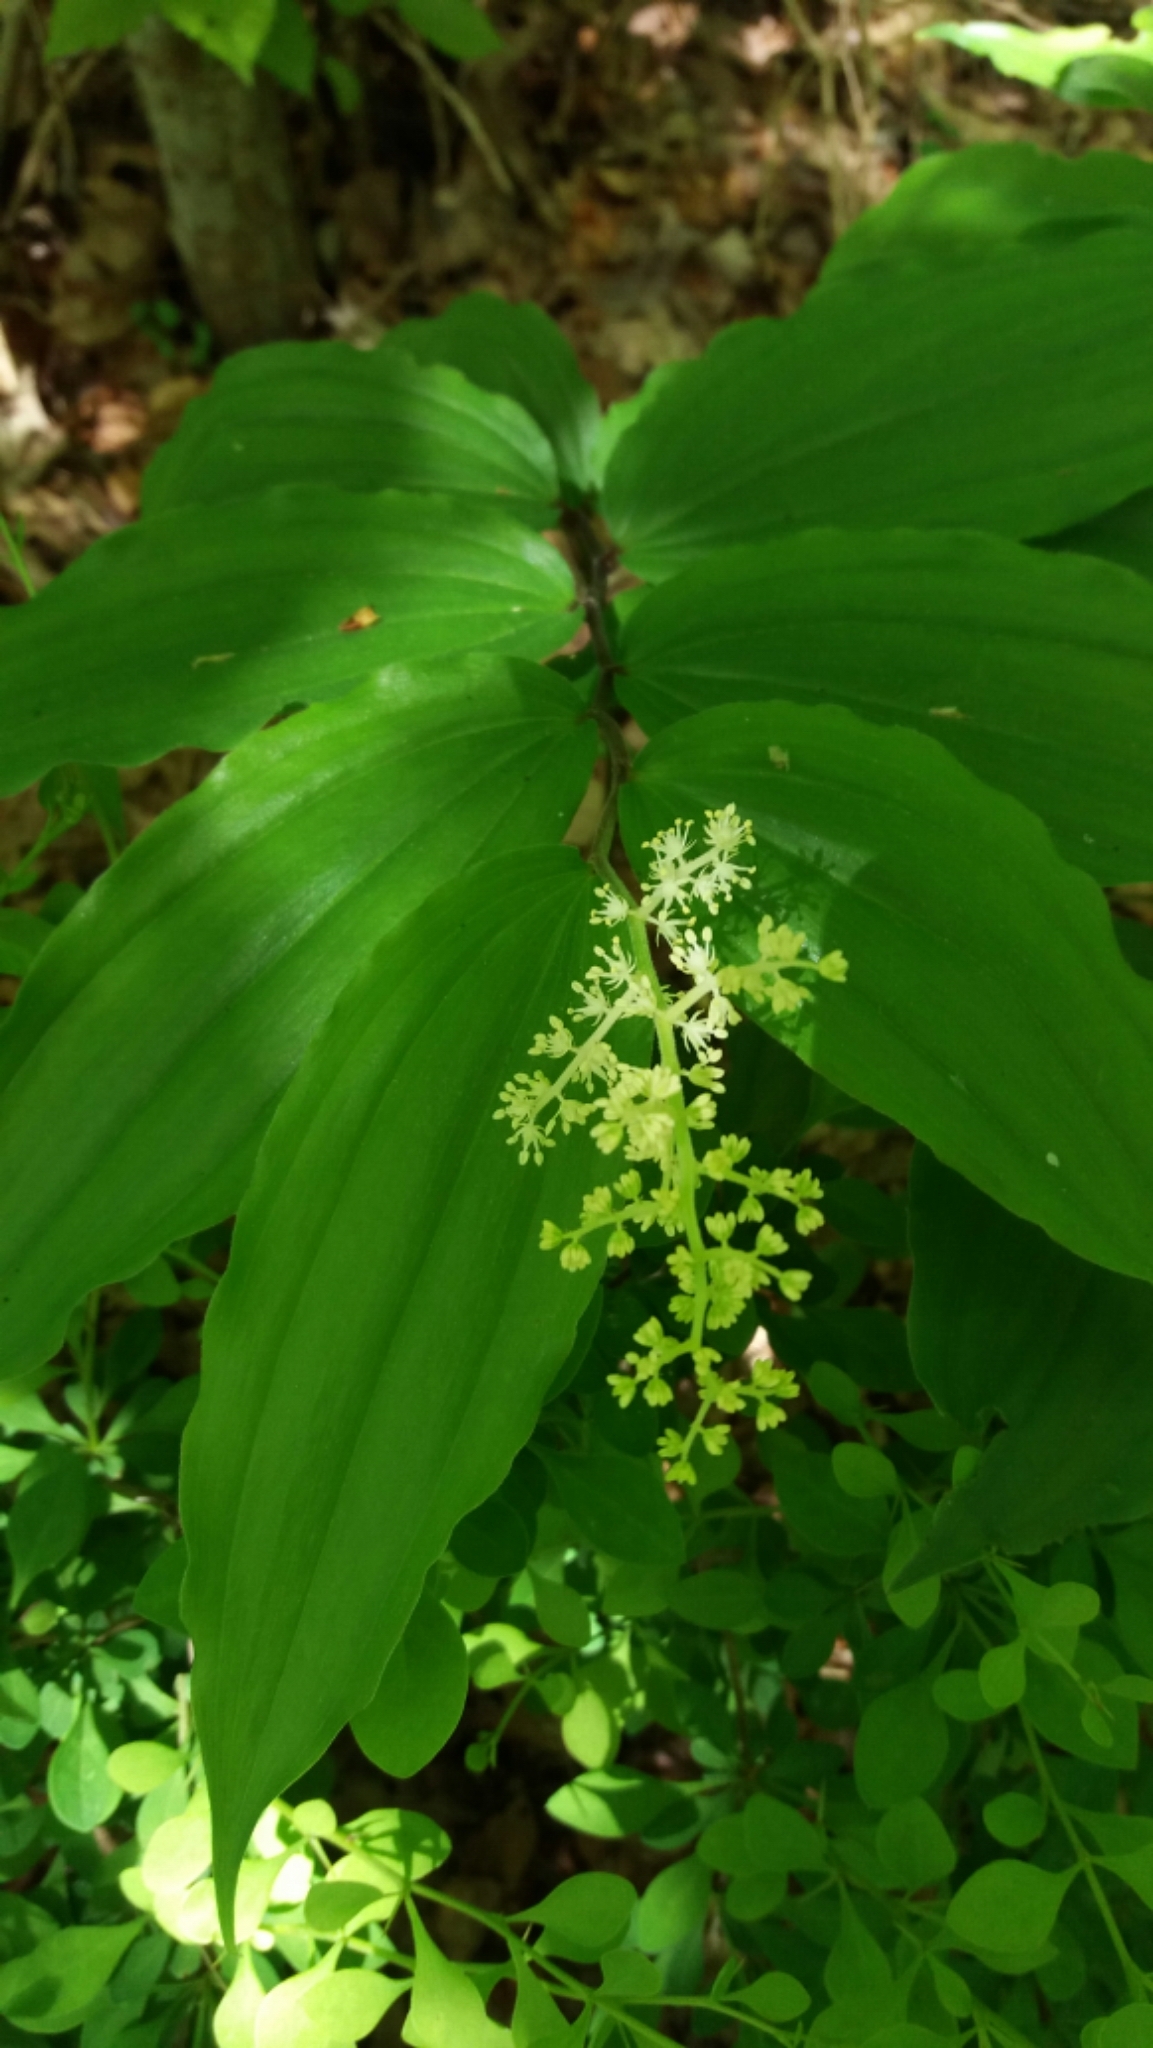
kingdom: Plantae
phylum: Tracheophyta
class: Liliopsida
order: Asparagales
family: Asparagaceae
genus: Maianthemum
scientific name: Maianthemum racemosum
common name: False spikenard
